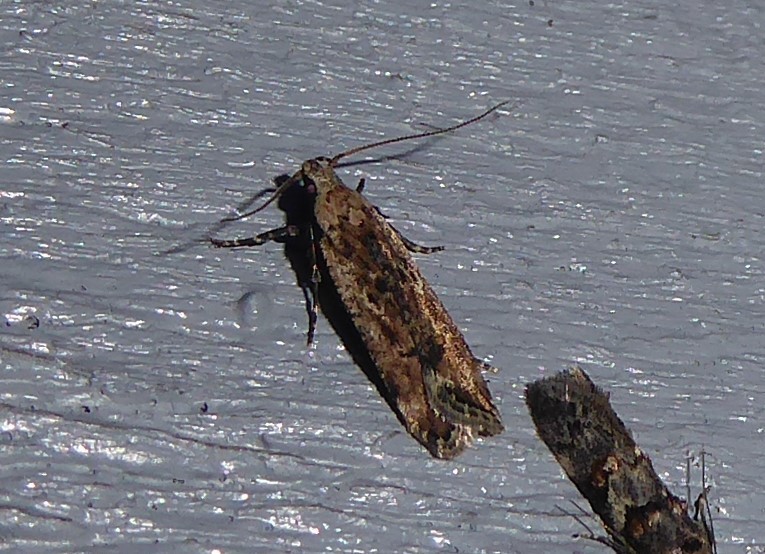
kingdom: Animalia
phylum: Arthropoda
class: Insecta
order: Lepidoptera
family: Gelechiidae
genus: Anisoplaca
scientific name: Anisoplaca achyrota
